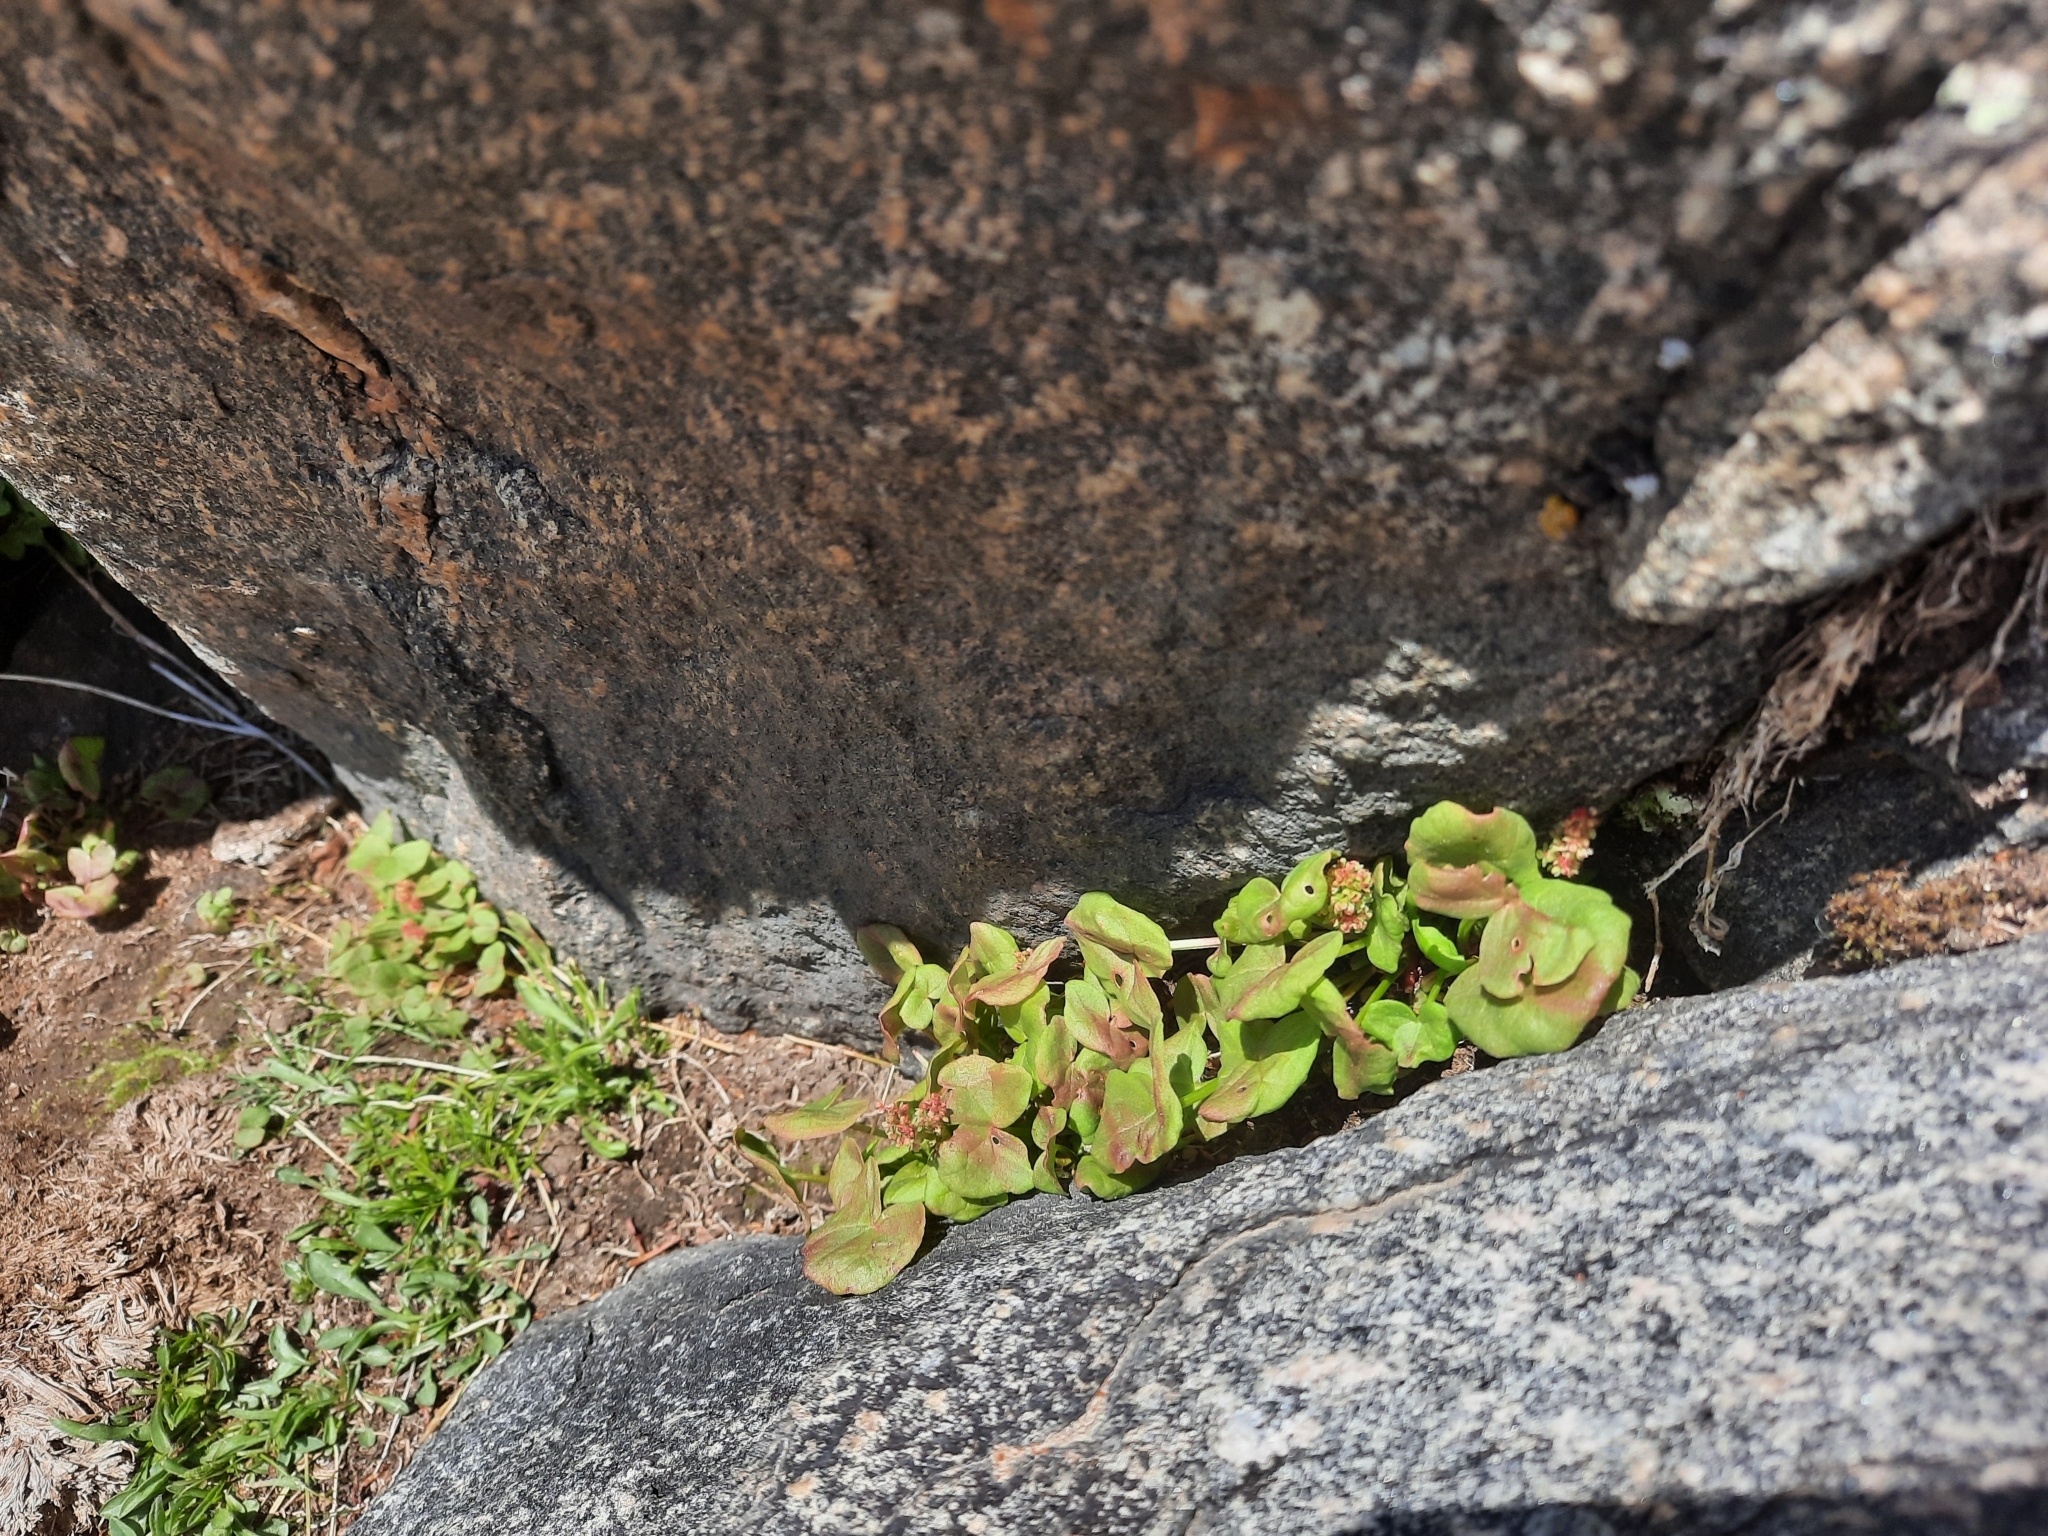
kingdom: Plantae
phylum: Tracheophyta
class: Magnoliopsida
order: Caryophyllales
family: Polygonaceae
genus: Oxyria
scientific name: Oxyria digyna
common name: Alpine mountain-sorrel
